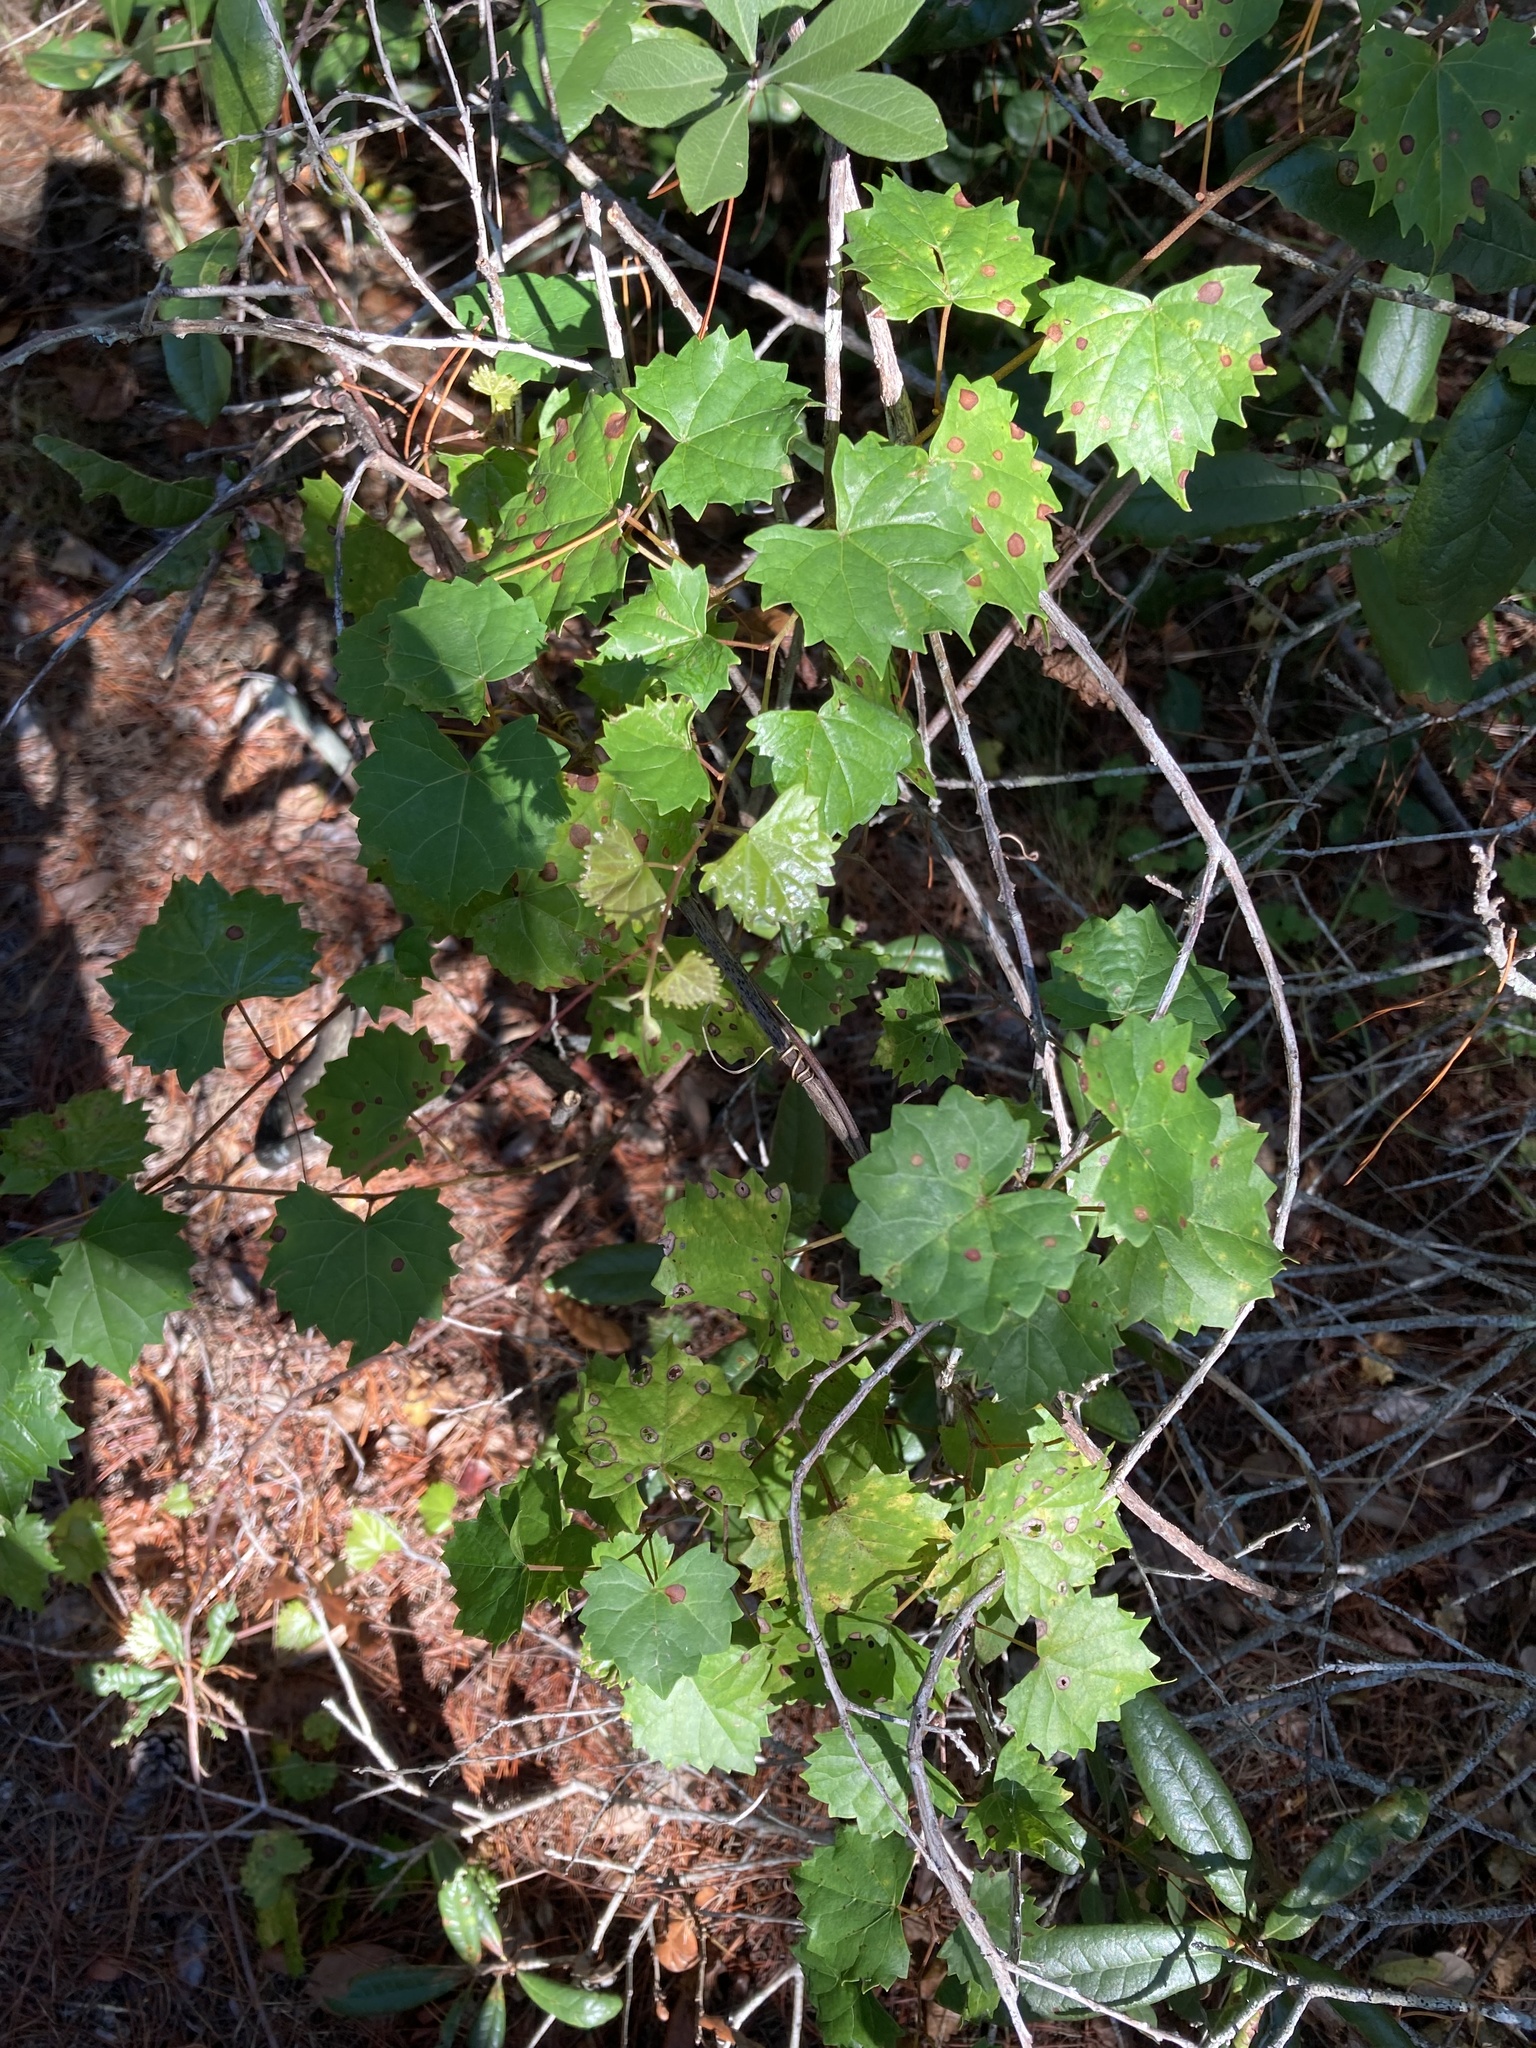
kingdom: Plantae
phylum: Tracheophyta
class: Magnoliopsida
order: Vitales
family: Vitaceae
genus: Vitis
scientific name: Vitis rotundifolia
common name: Muscadine grape
